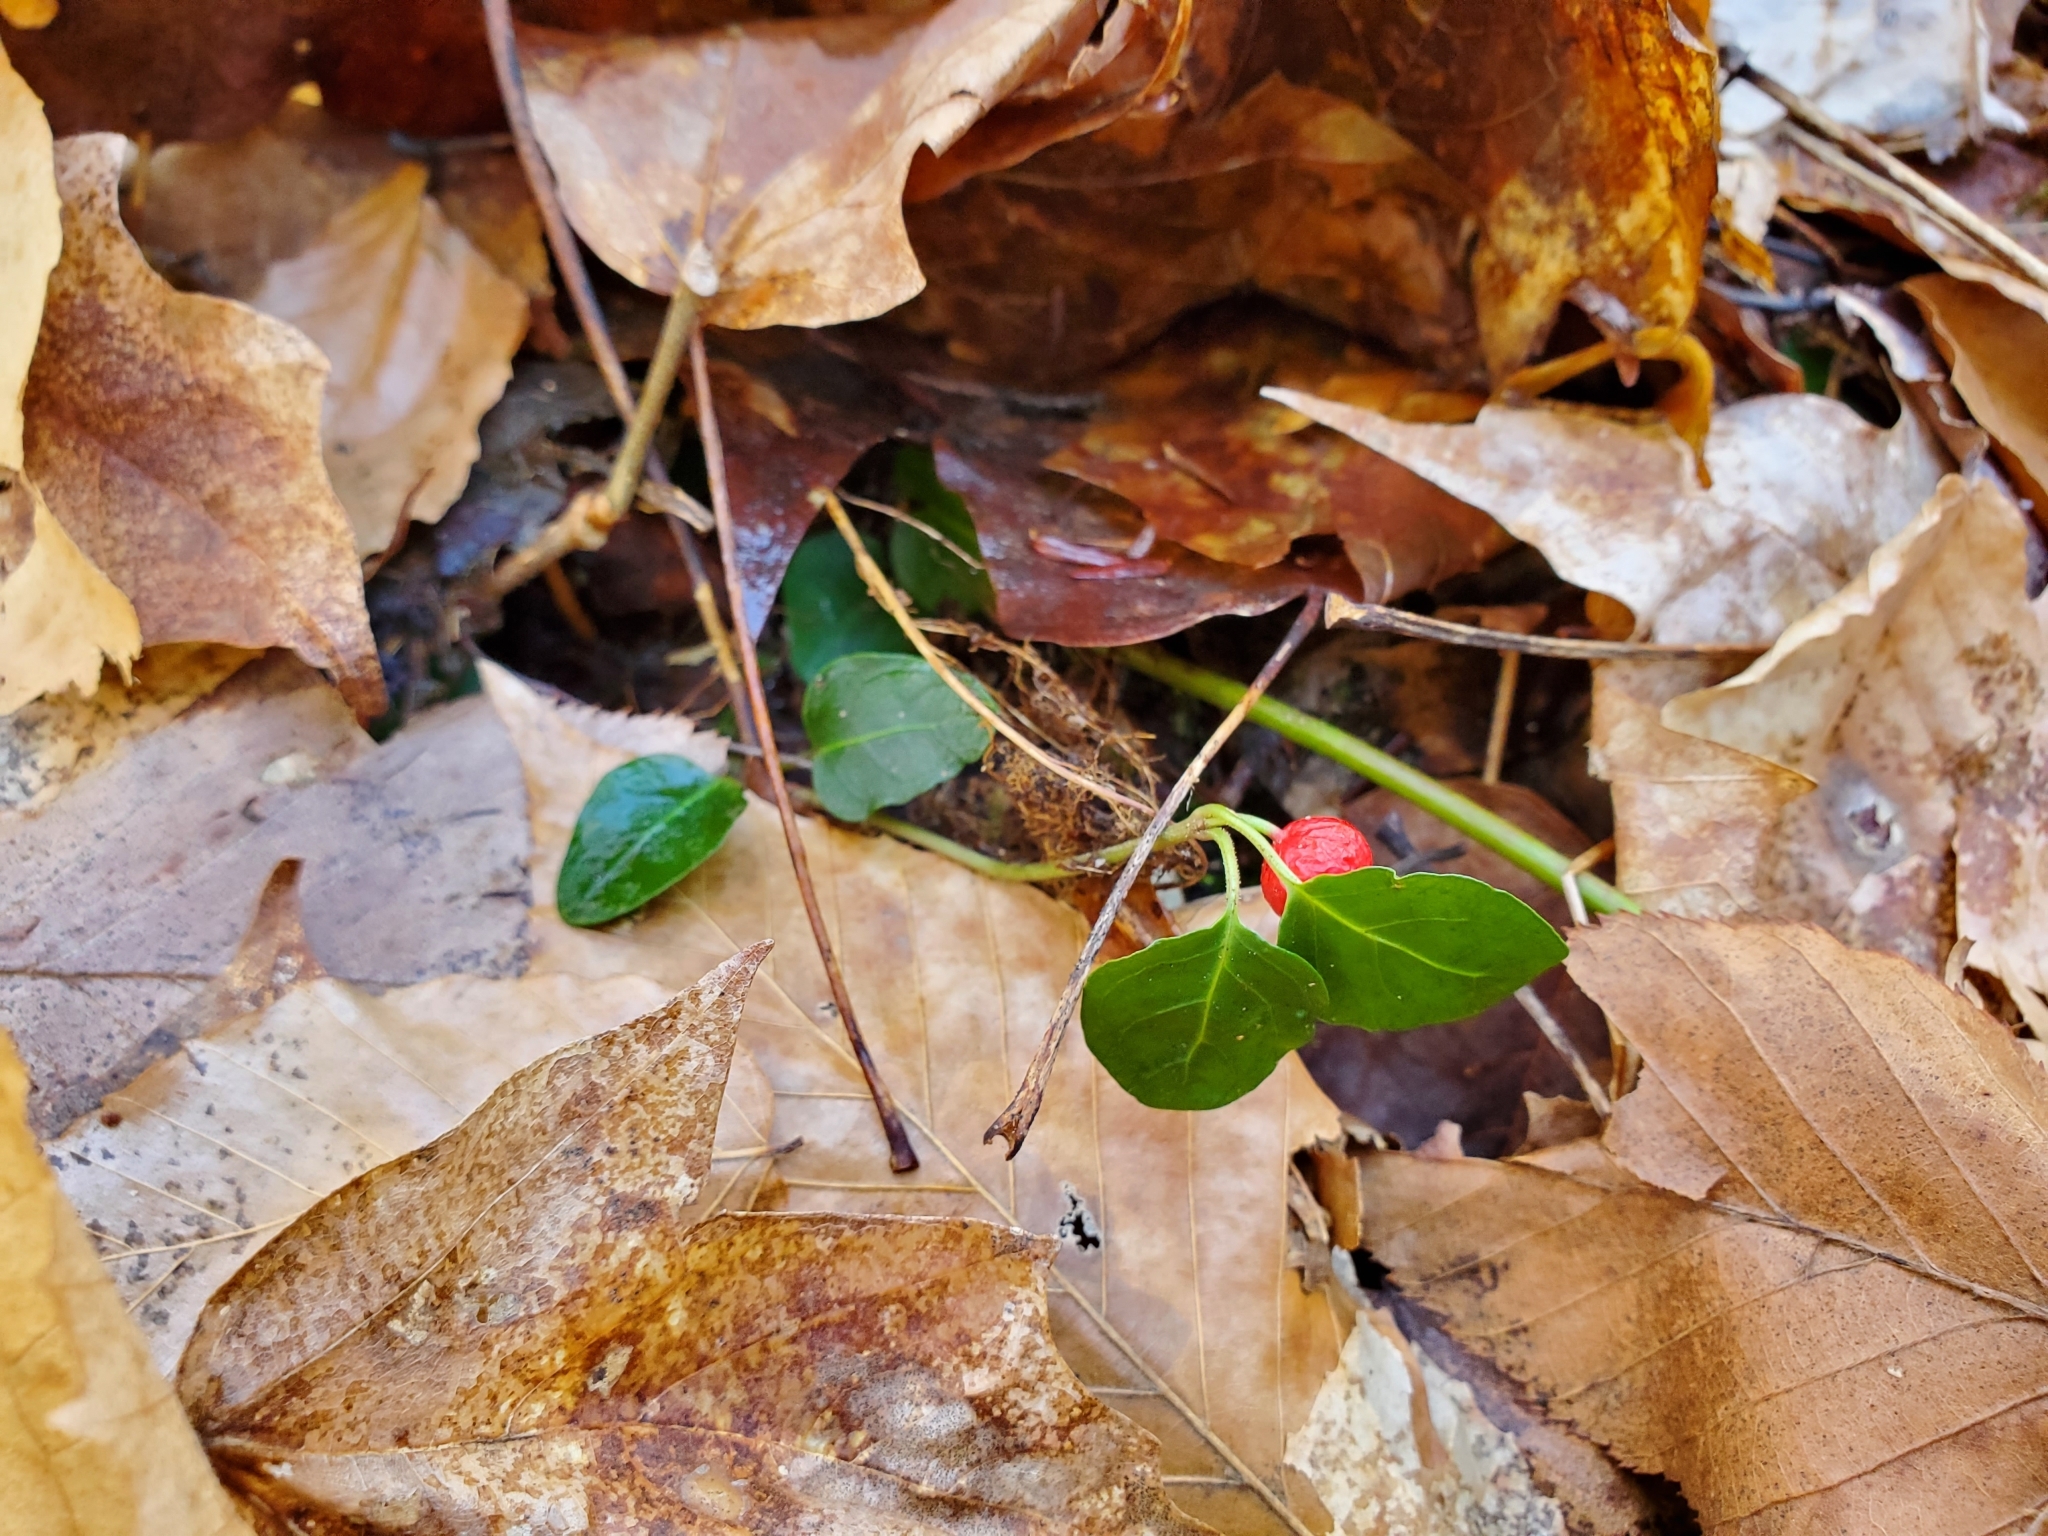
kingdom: Plantae
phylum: Tracheophyta
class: Magnoliopsida
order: Gentianales
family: Rubiaceae
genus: Mitchella
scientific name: Mitchella repens
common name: Partridge-berry
